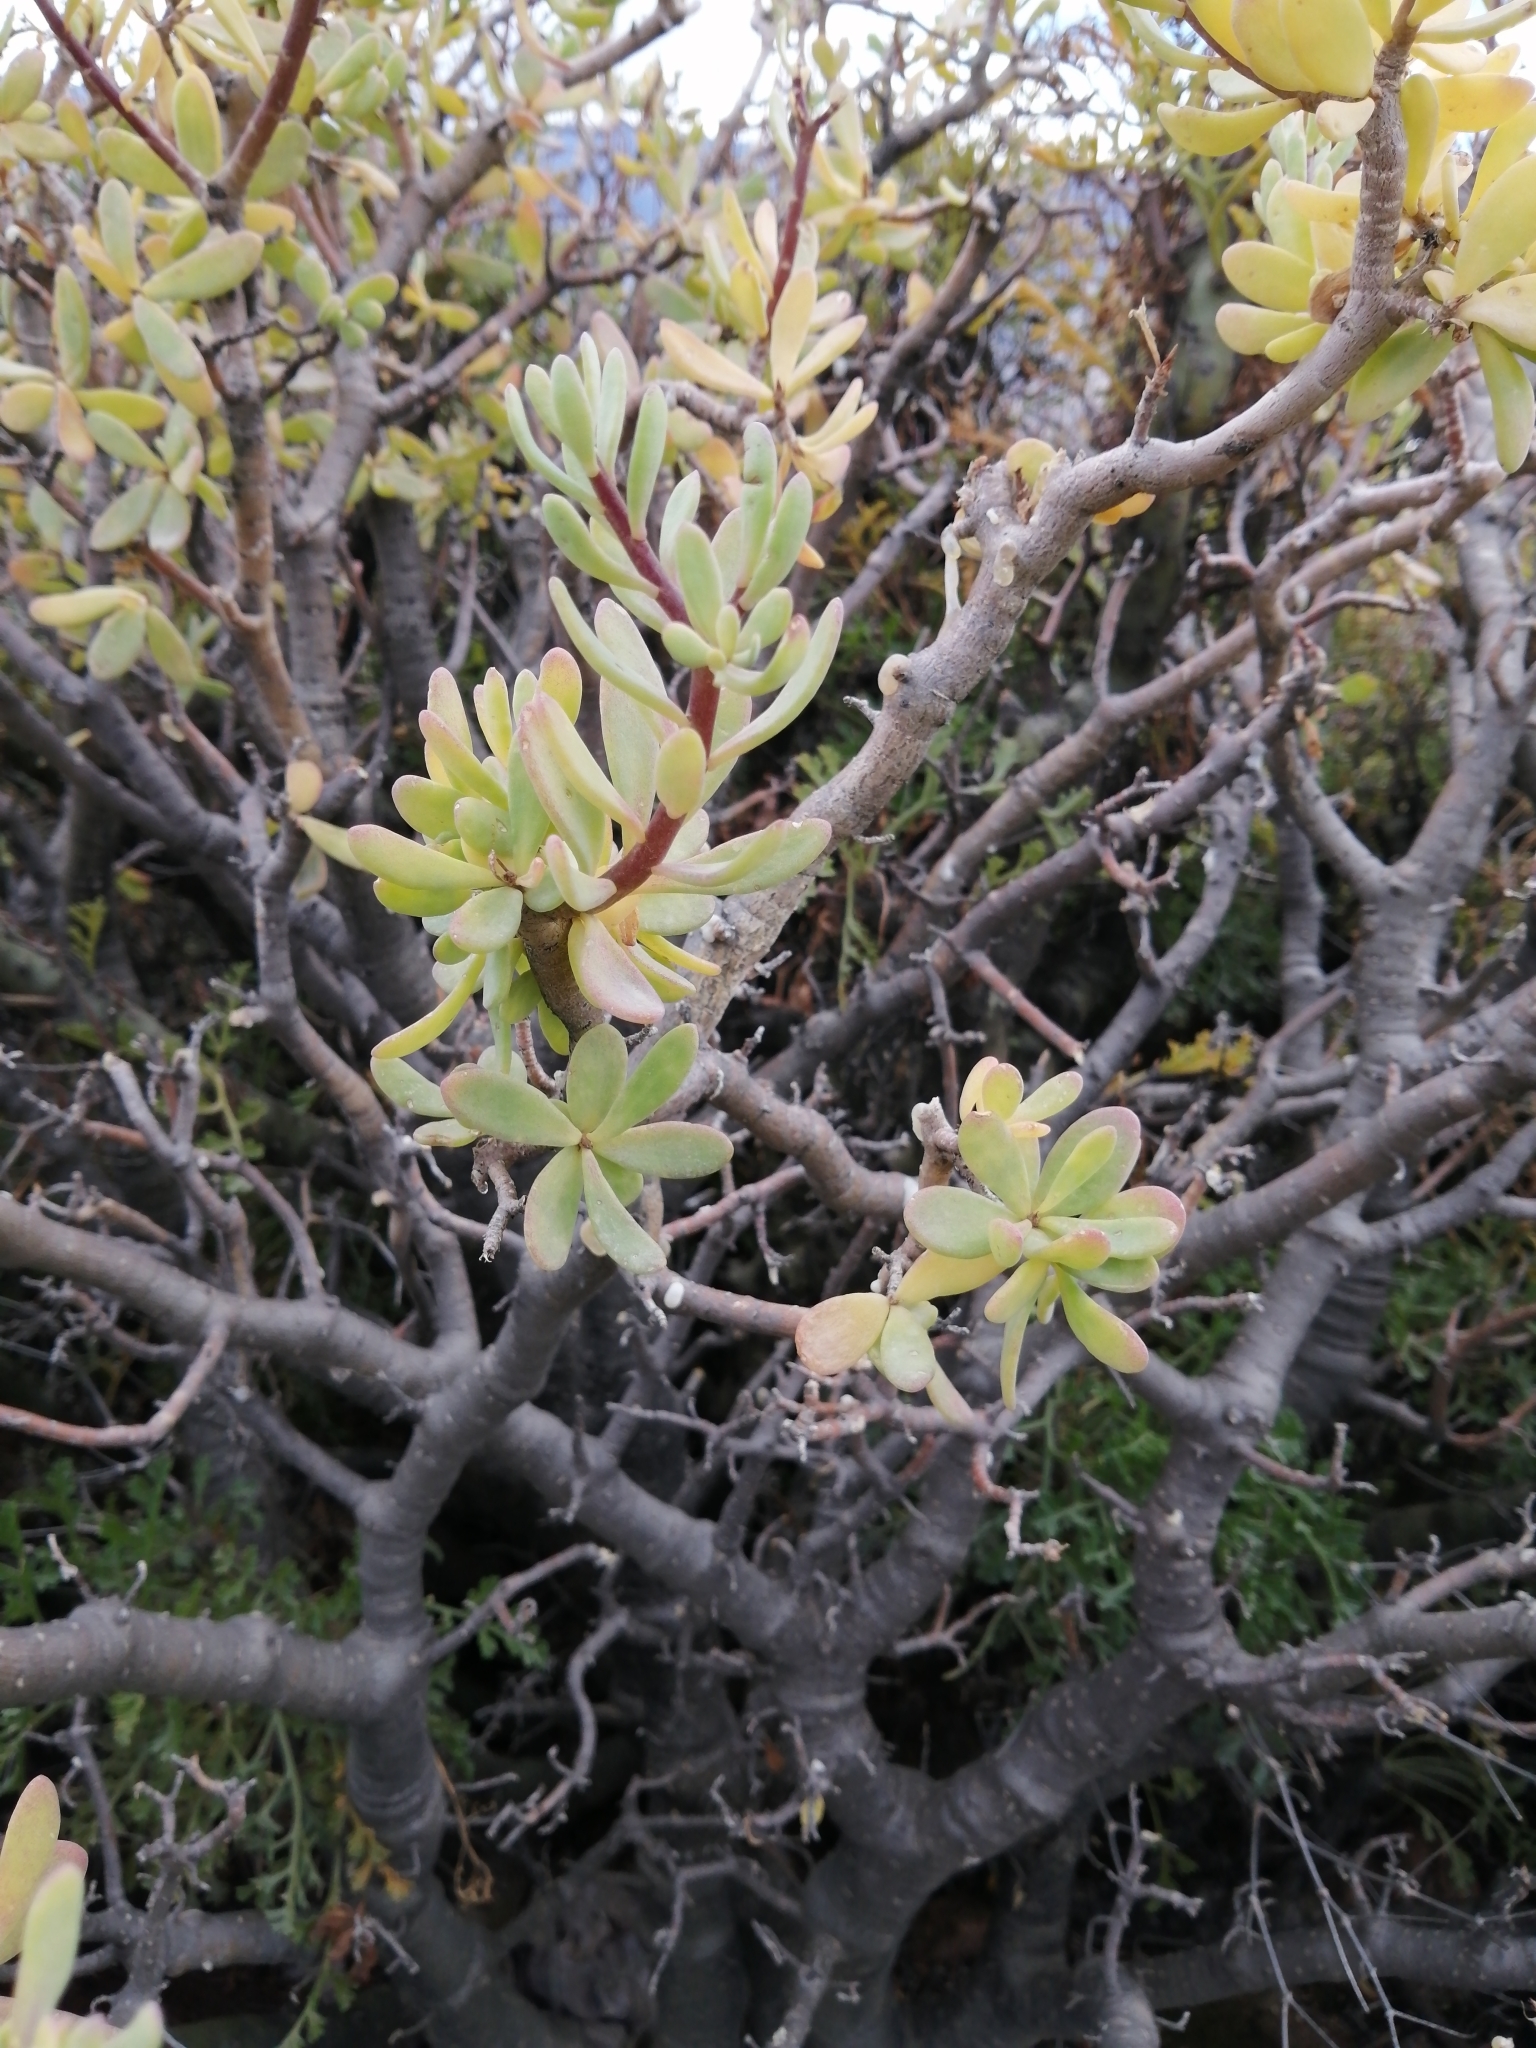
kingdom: Plantae
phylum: Tracheophyta
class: Magnoliopsida
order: Asterales
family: Asteraceae
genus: Othonna
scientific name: Othonna arbuscula
